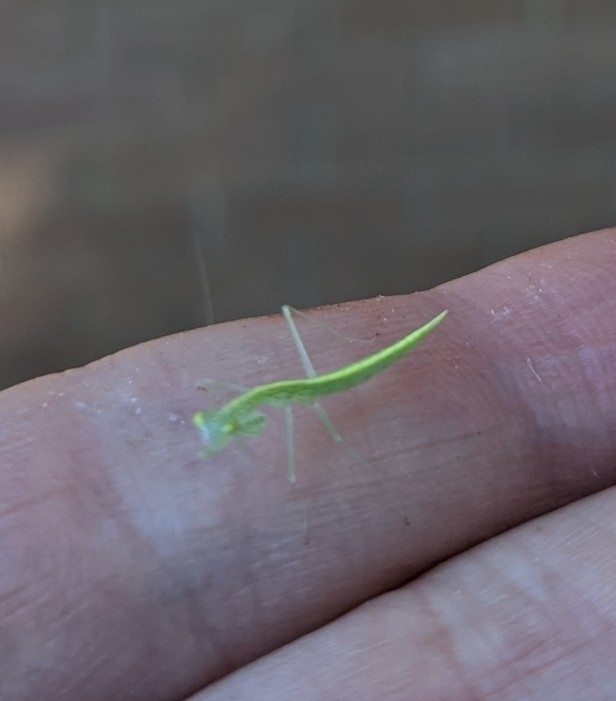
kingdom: Animalia
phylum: Arthropoda
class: Insecta
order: Mantodea
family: Nanomantidae
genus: Kongobatha
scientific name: Kongobatha diademata
